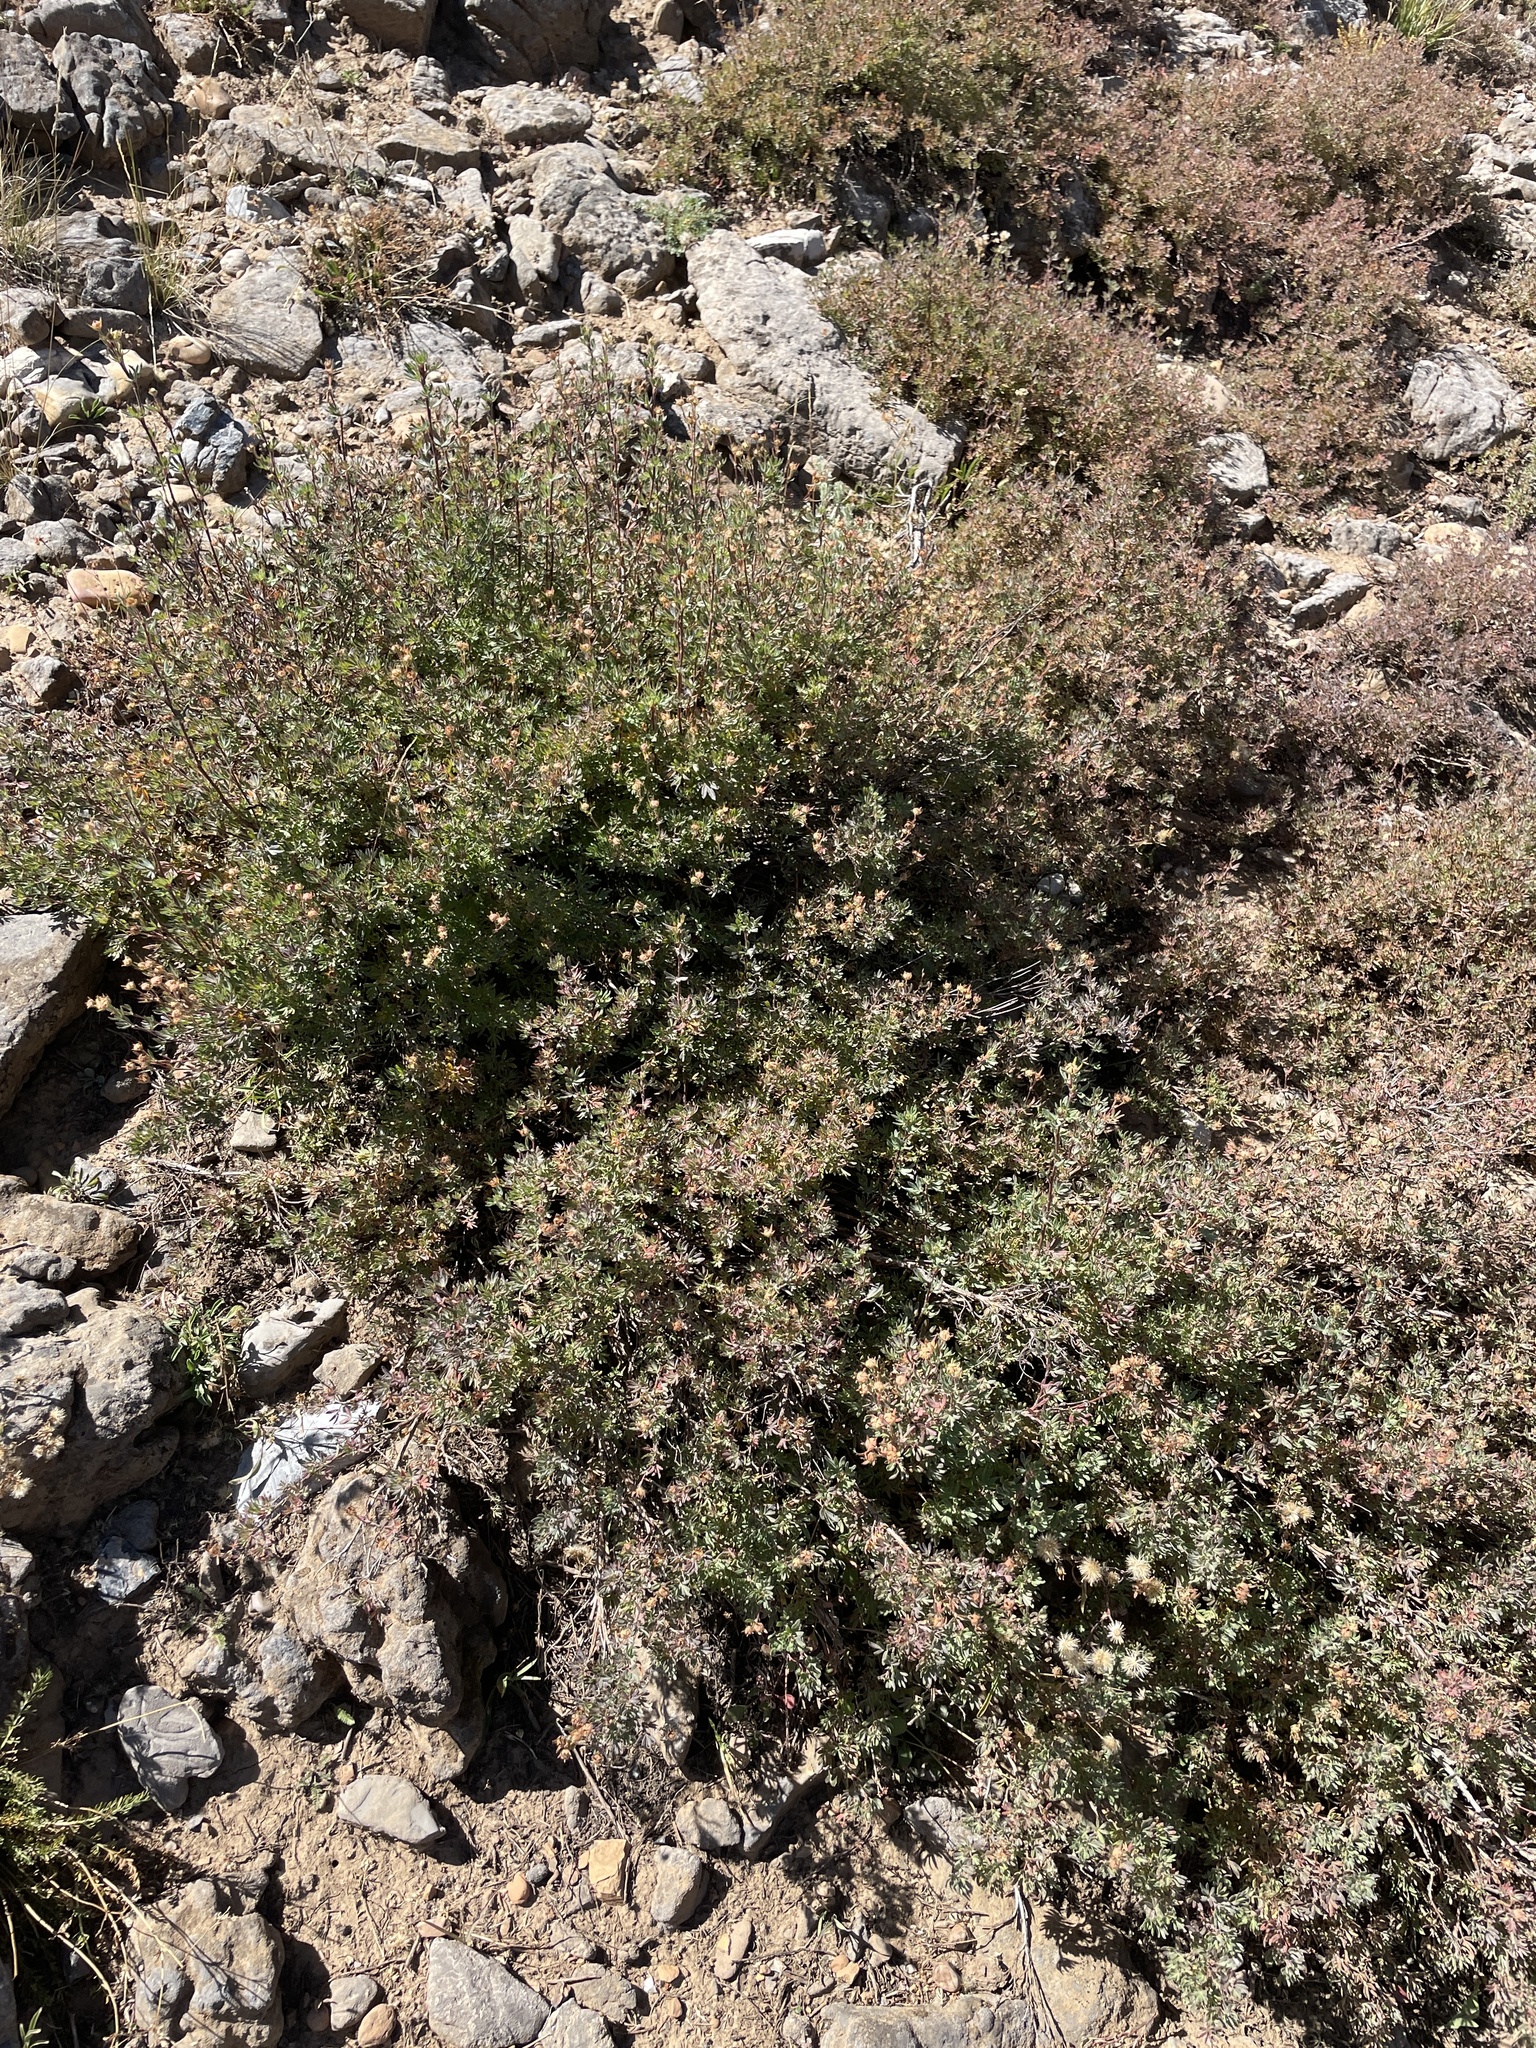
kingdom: Plantae
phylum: Tracheophyta
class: Magnoliopsida
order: Rosales
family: Rosaceae
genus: Dasiphora
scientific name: Dasiphora fruticosa
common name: Shrubby cinquefoil
